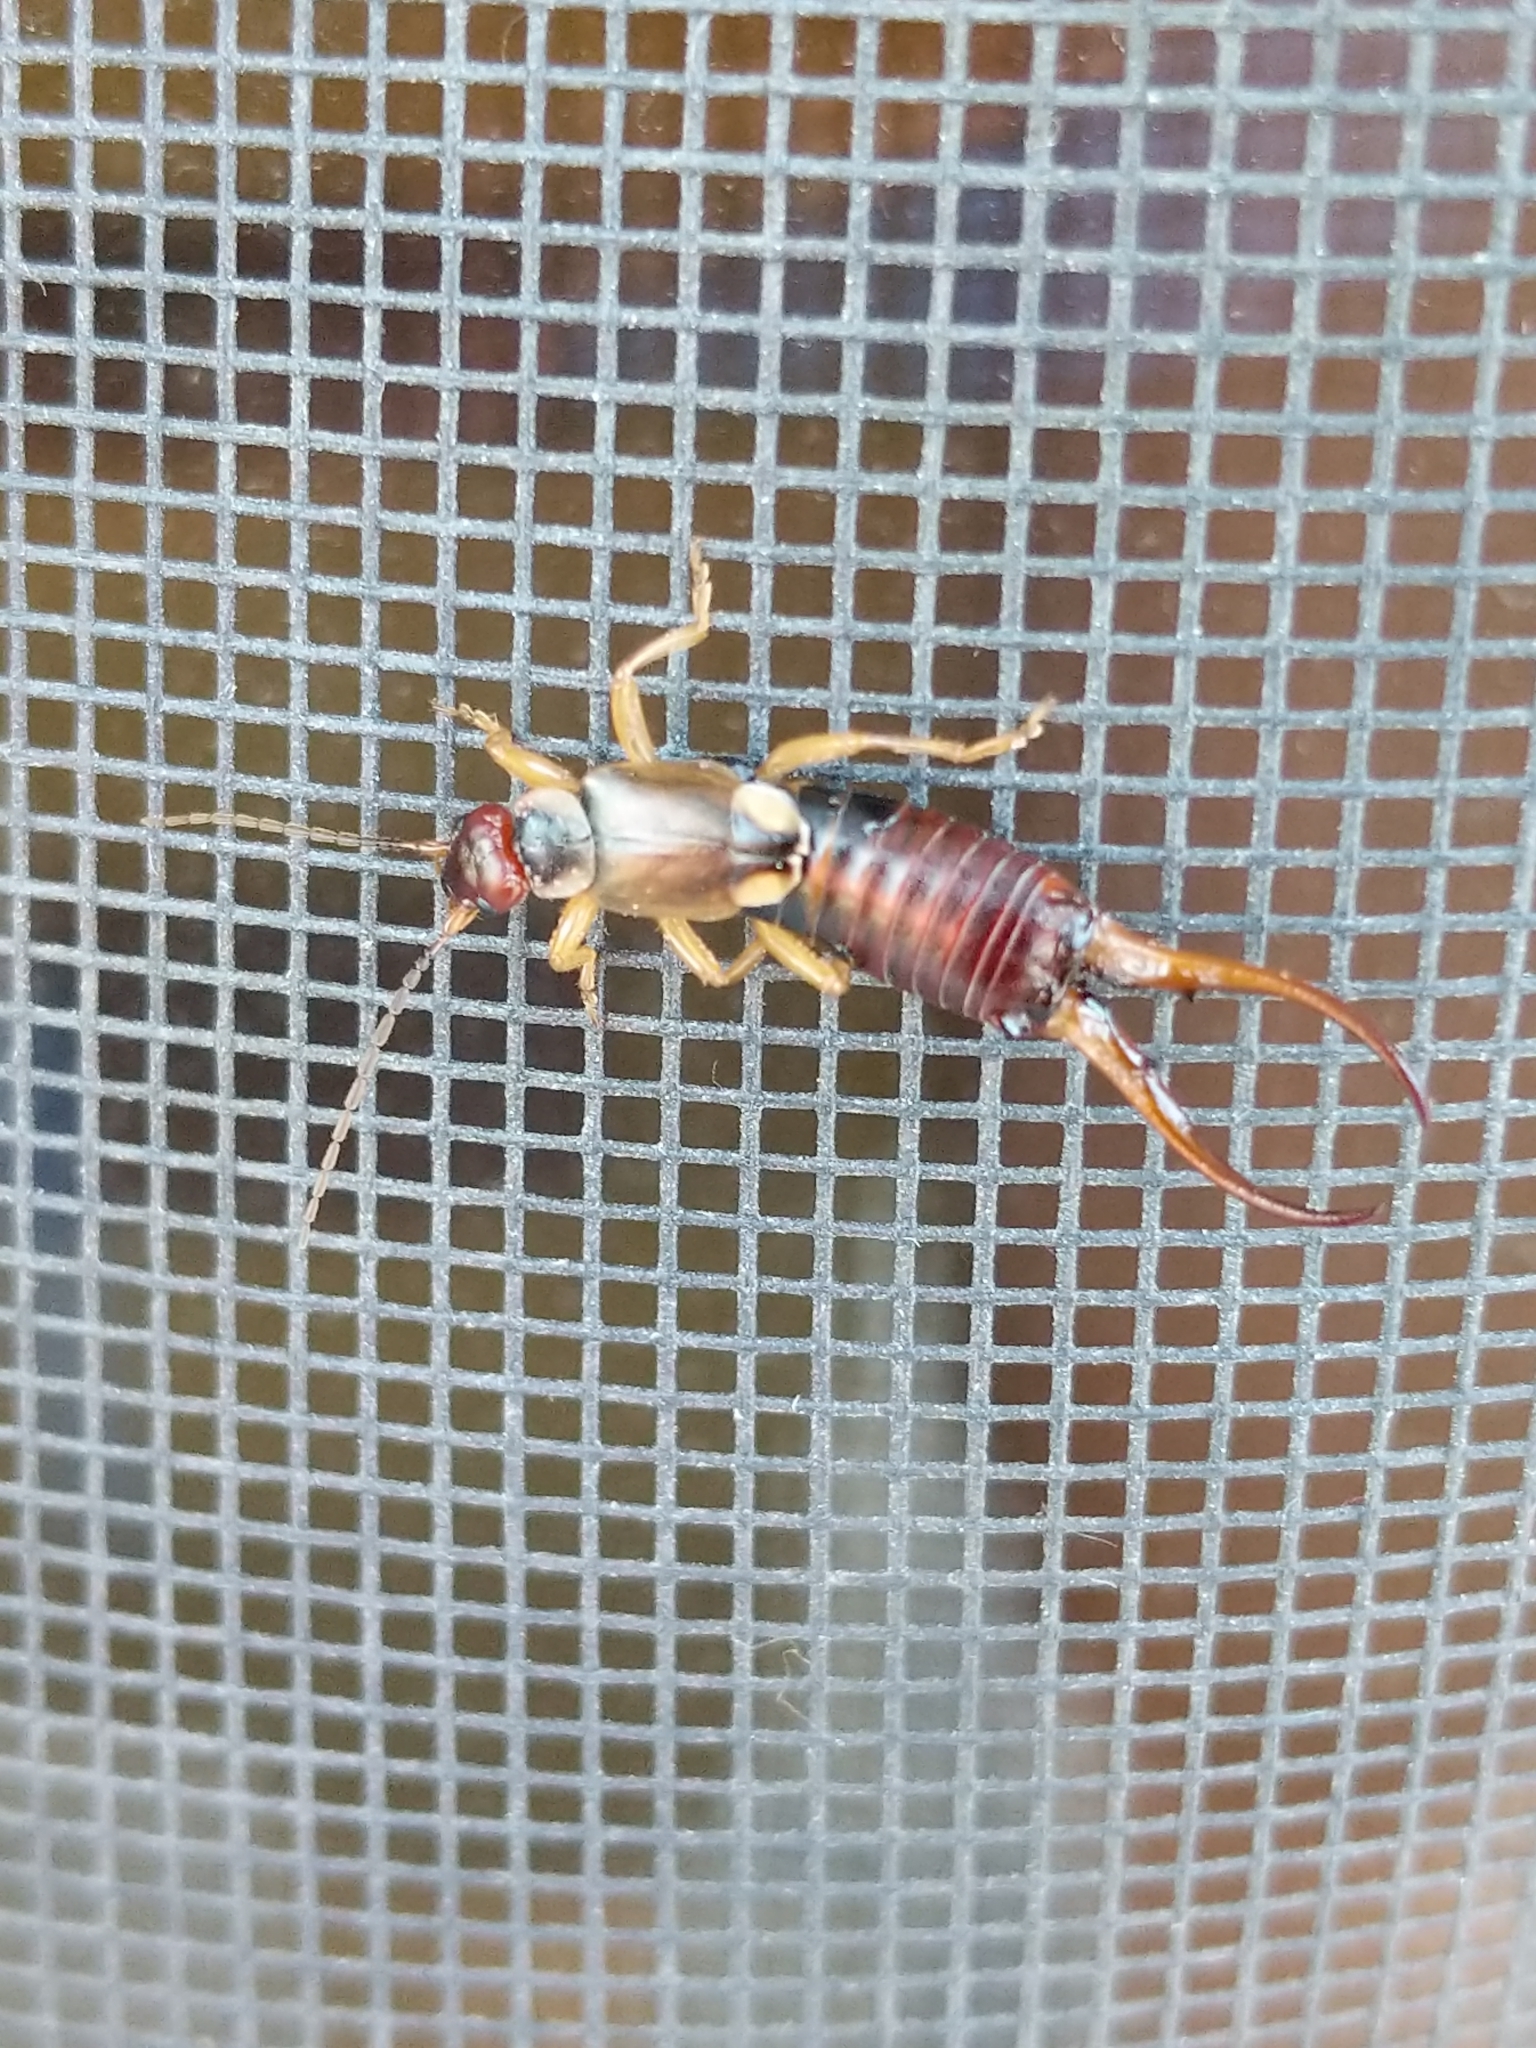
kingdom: Animalia
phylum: Arthropoda
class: Insecta
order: Dermaptera
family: Forficulidae
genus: Forficula
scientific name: Forficula
